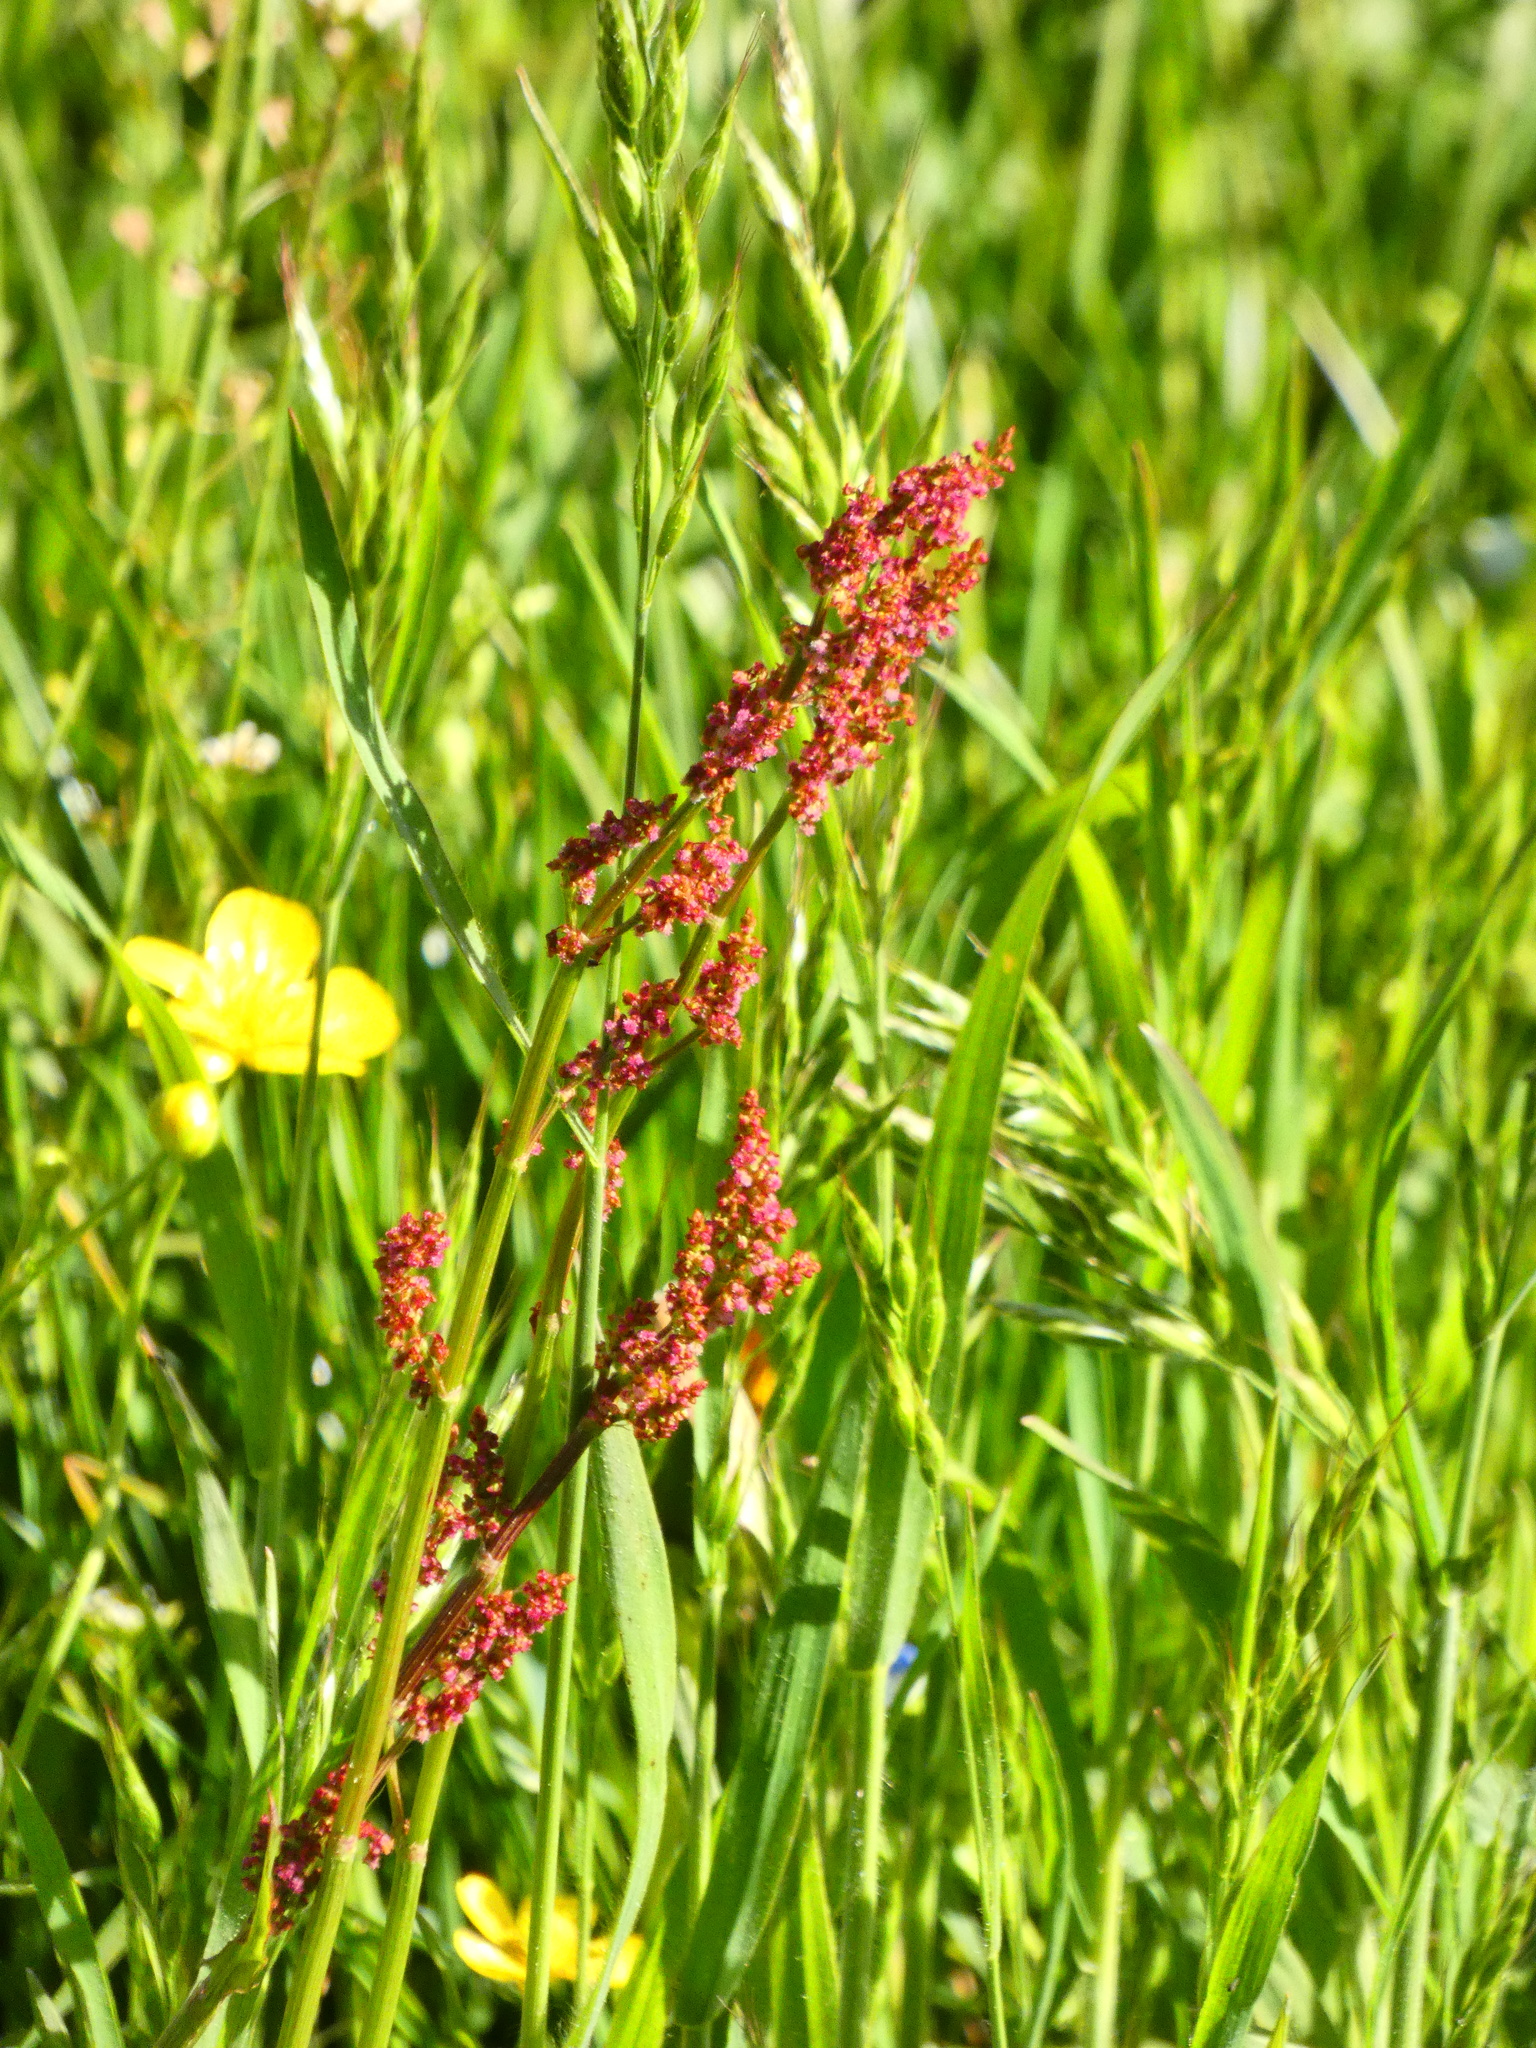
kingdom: Plantae
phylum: Tracheophyta
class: Magnoliopsida
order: Caryophyllales
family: Polygonaceae
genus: Rumex
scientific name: Rumex acetosa
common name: Garden sorrel
